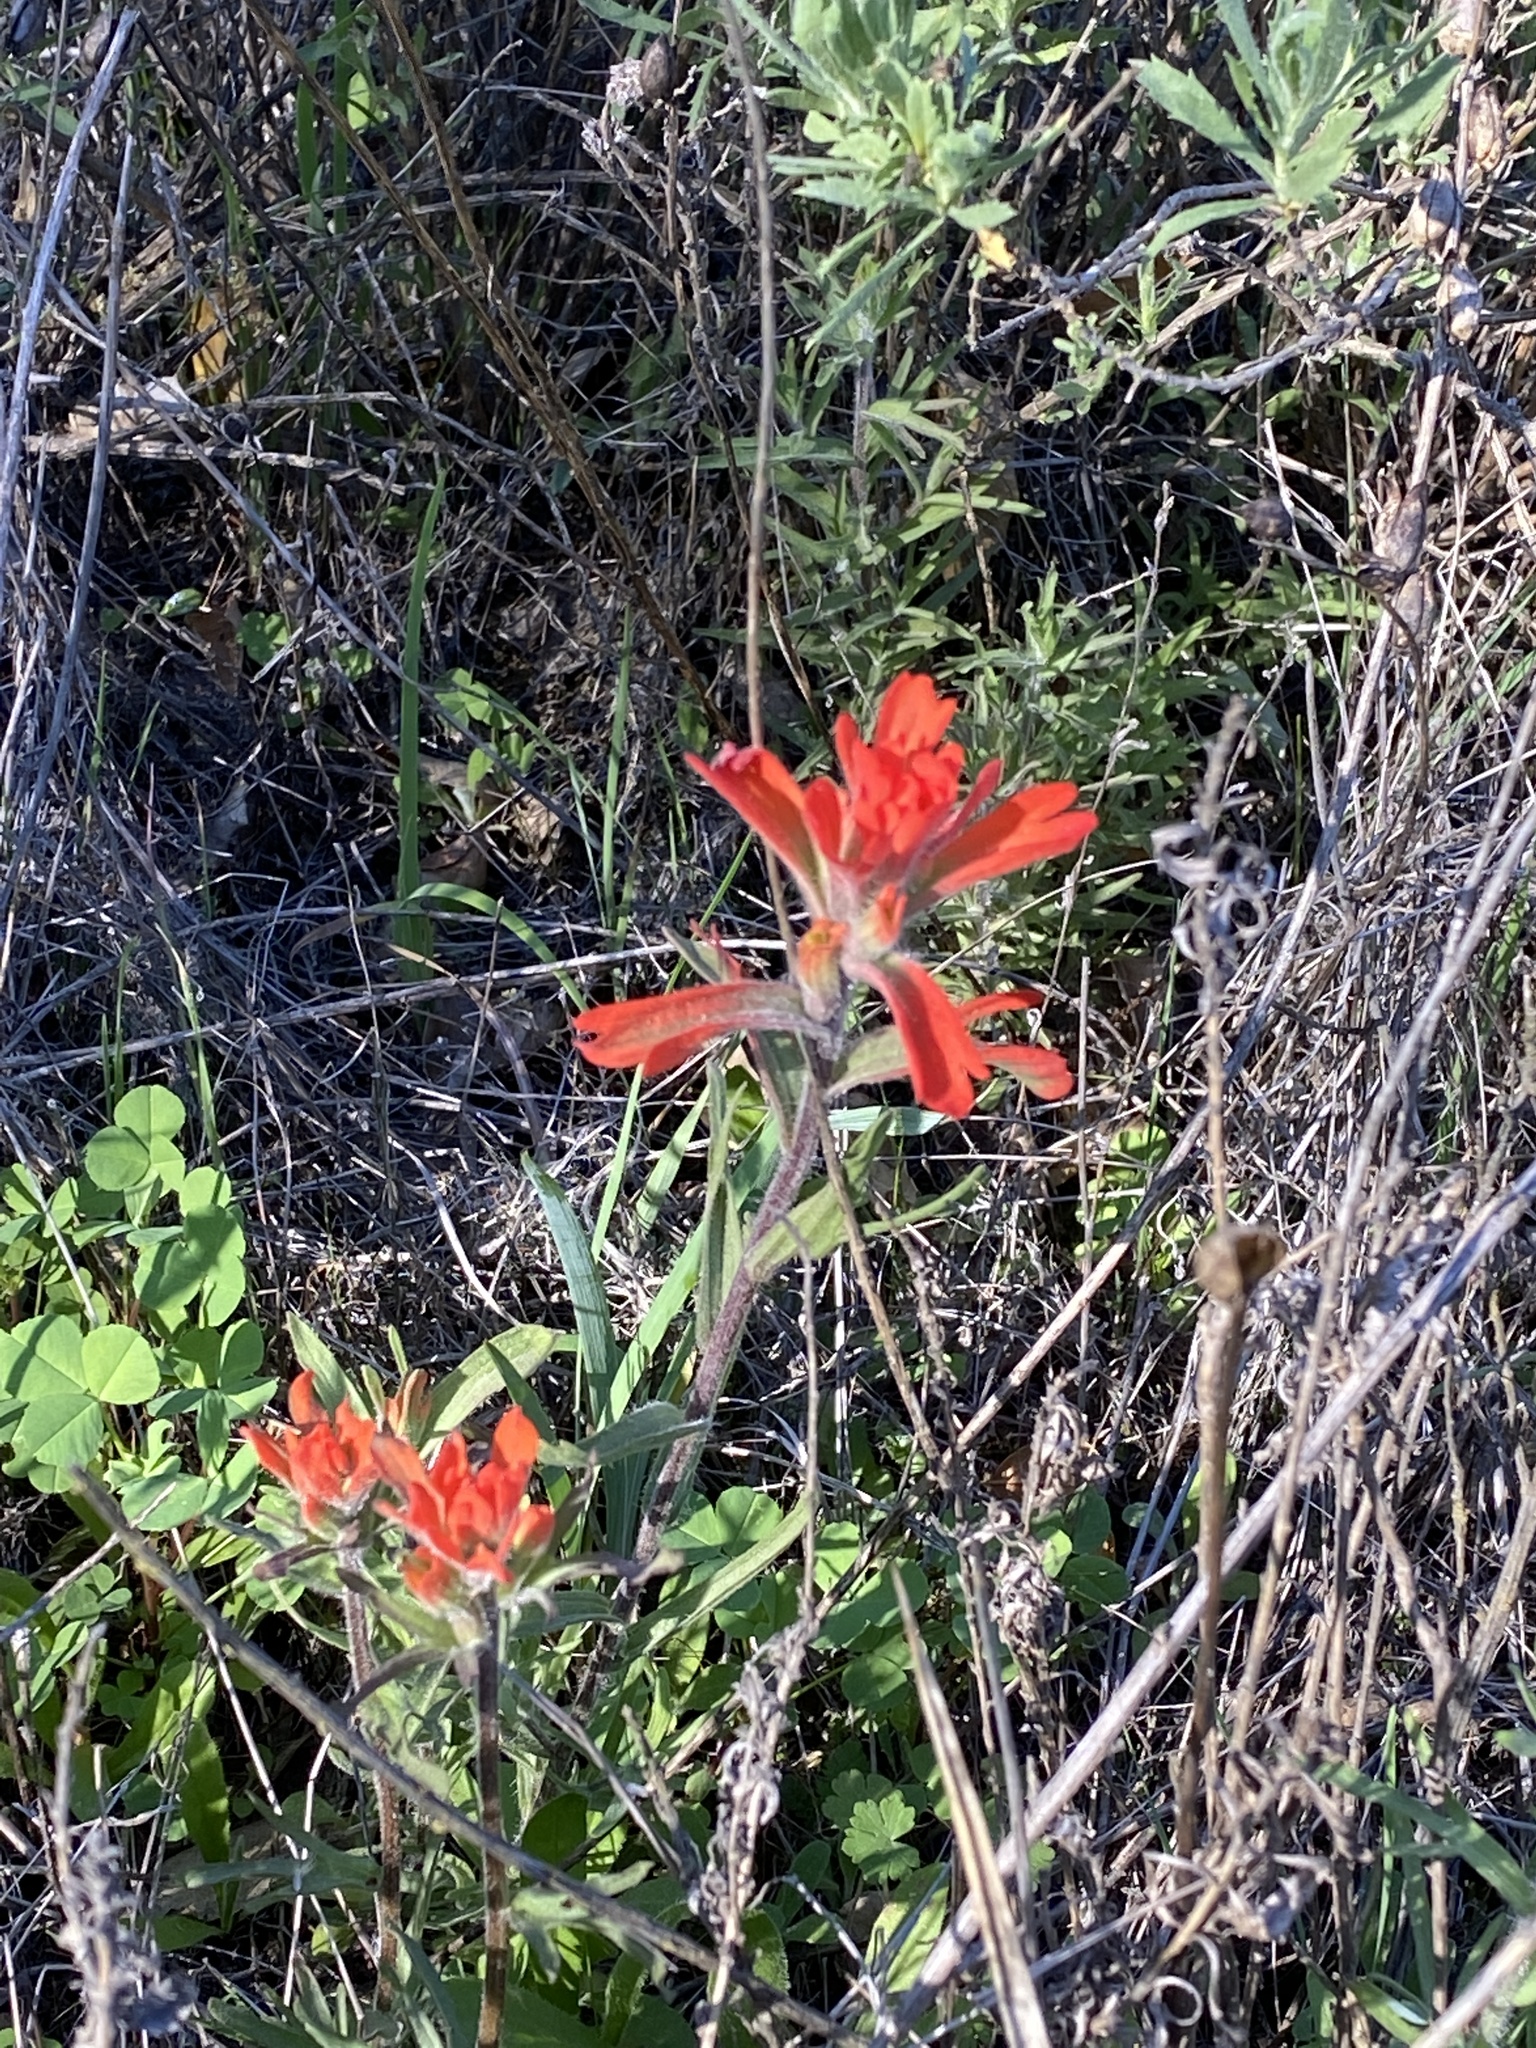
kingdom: Plantae
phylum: Tracheophyta
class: Magnoliopsida
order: Lamiales
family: Orobanchaceae
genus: Castilleja
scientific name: Castilleja affinis
